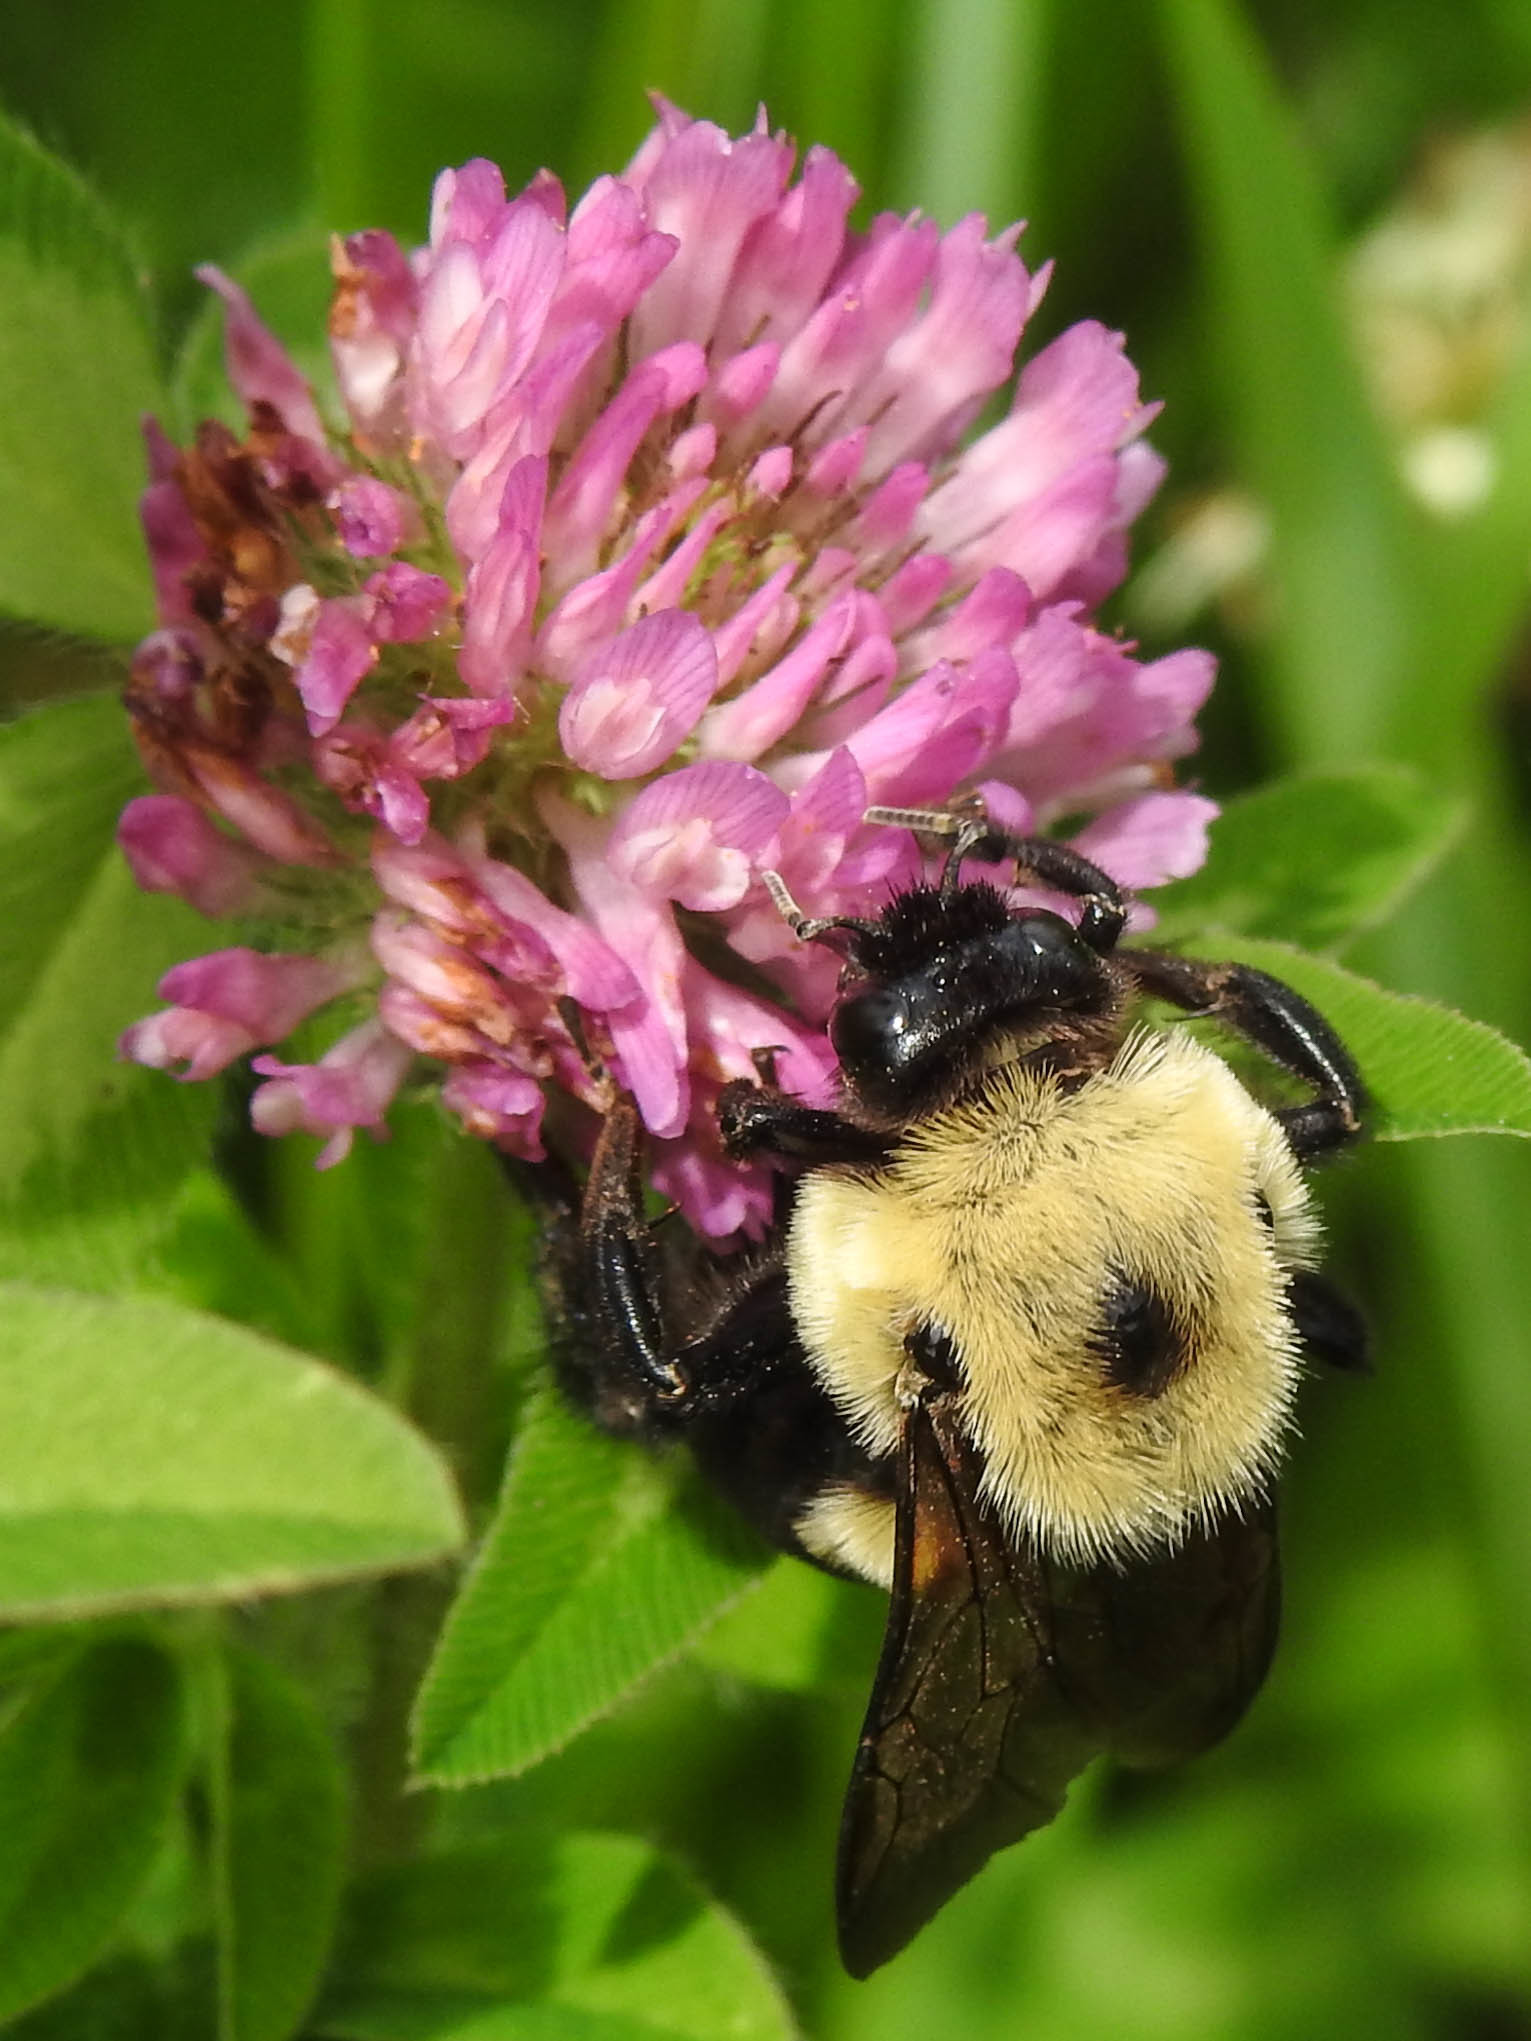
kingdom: Animalia
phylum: Arthropoda
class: Insecta
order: Hymenoptera
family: Apidae
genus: Bombus
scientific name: Bombus griseocollis
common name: Brown-belted bumble bee
